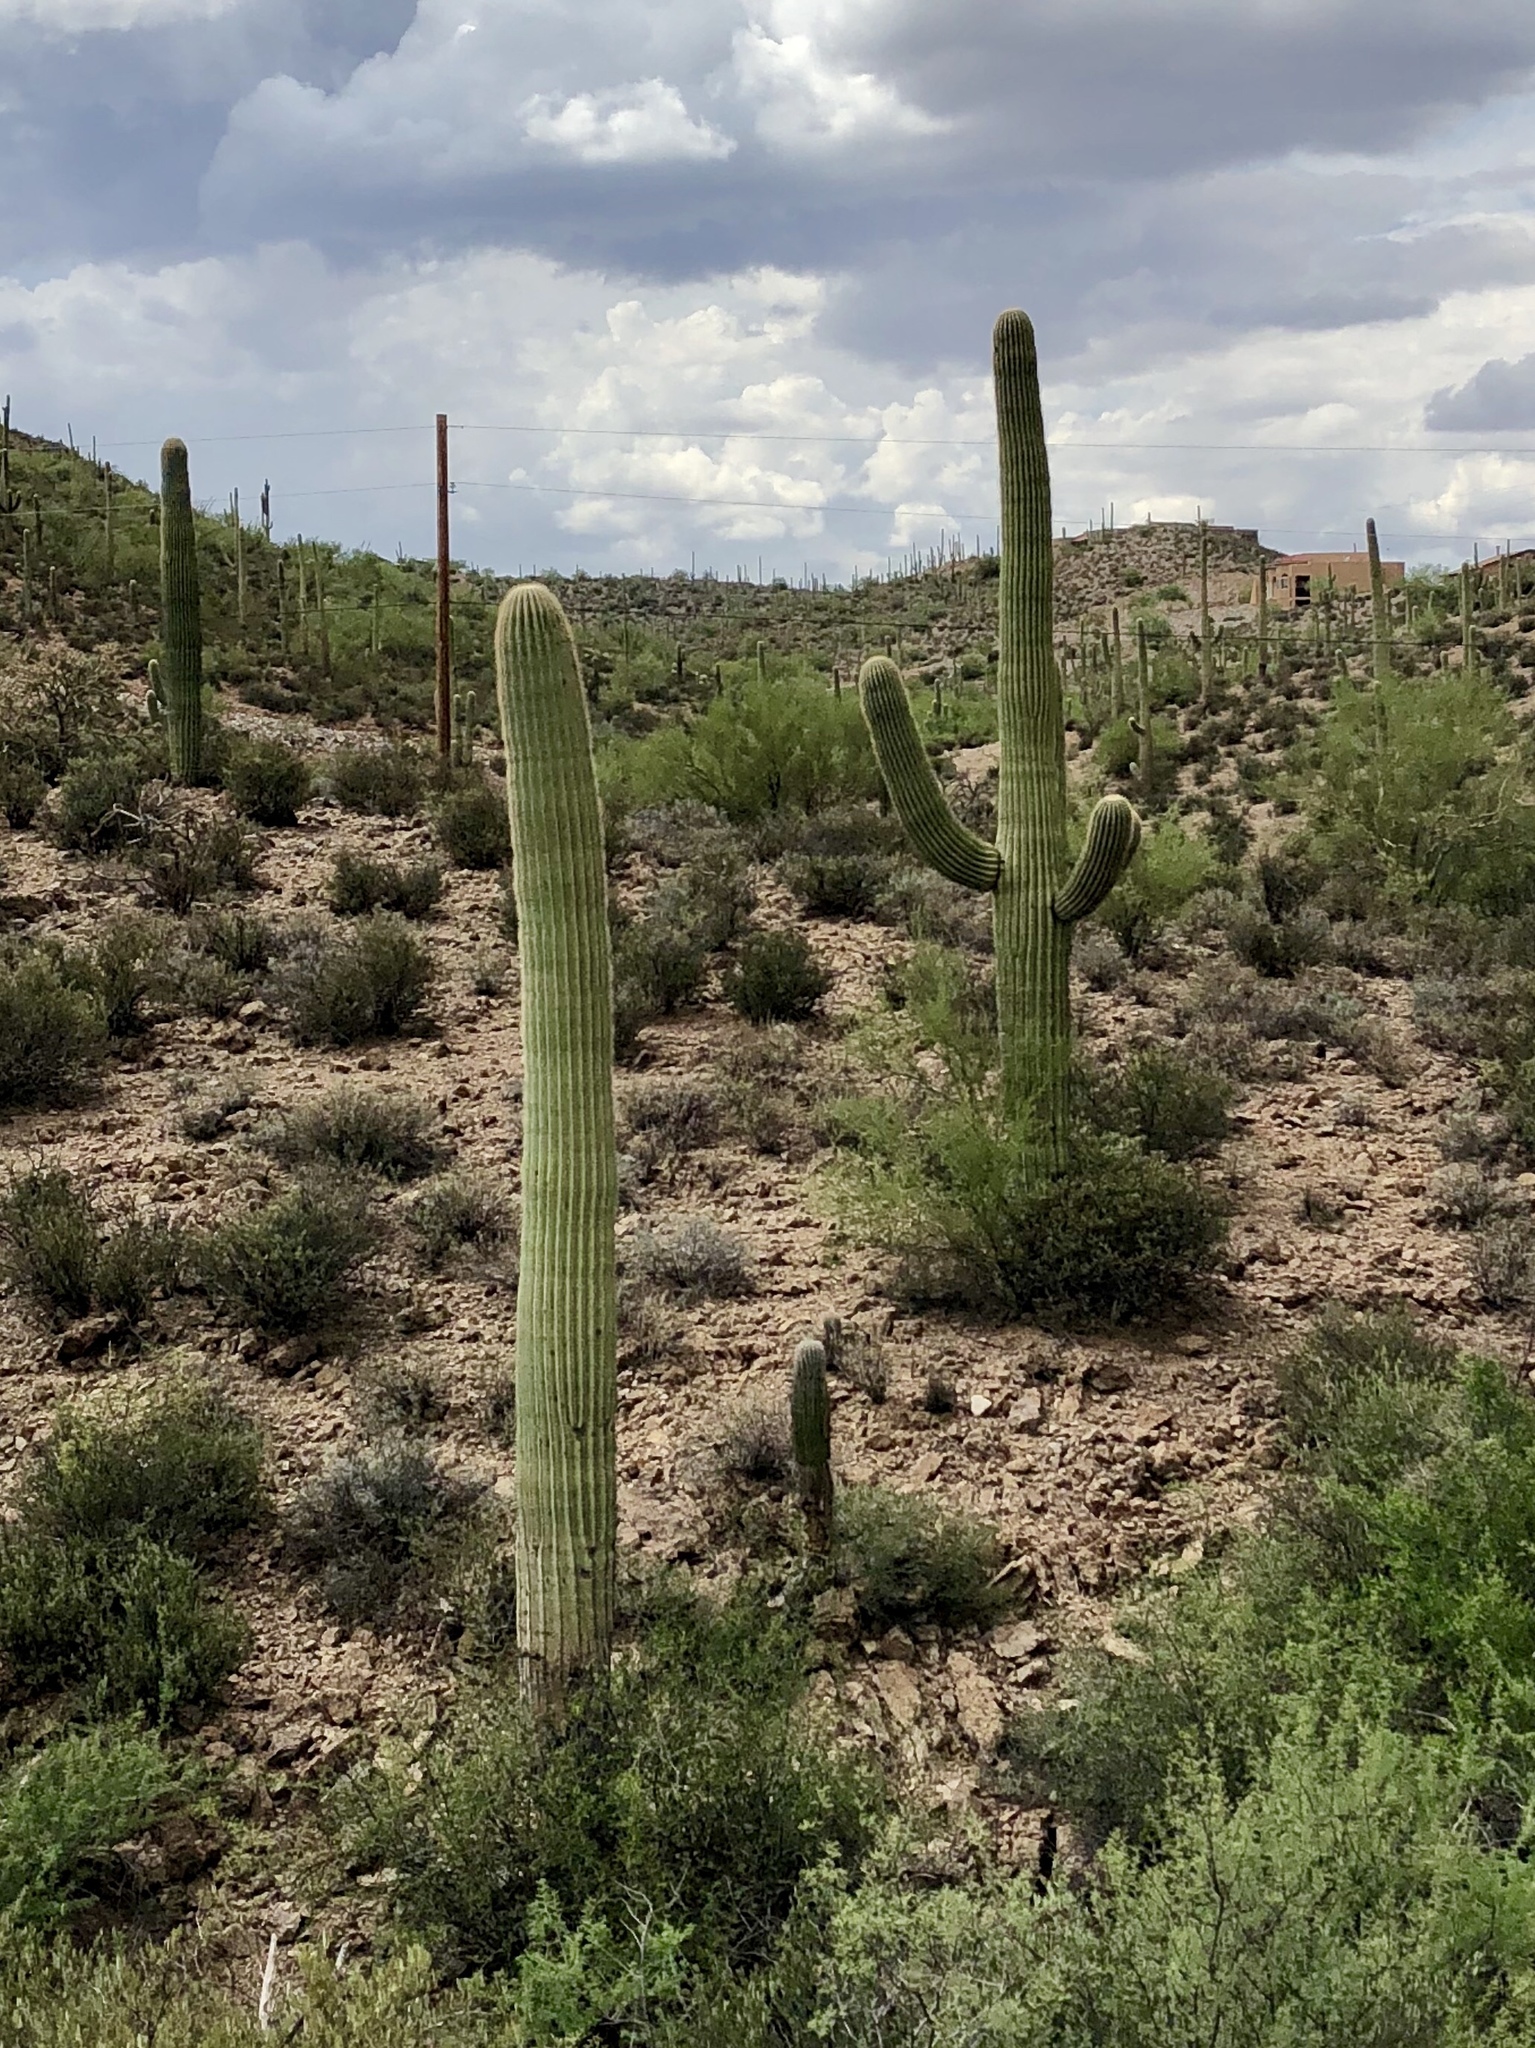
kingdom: Plantae
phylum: Tracheophyta
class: Magnoliopsida
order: Caryophyllales
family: Cactaceae
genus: Carnegiea
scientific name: Carnegiea gigantea
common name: Saguaro
